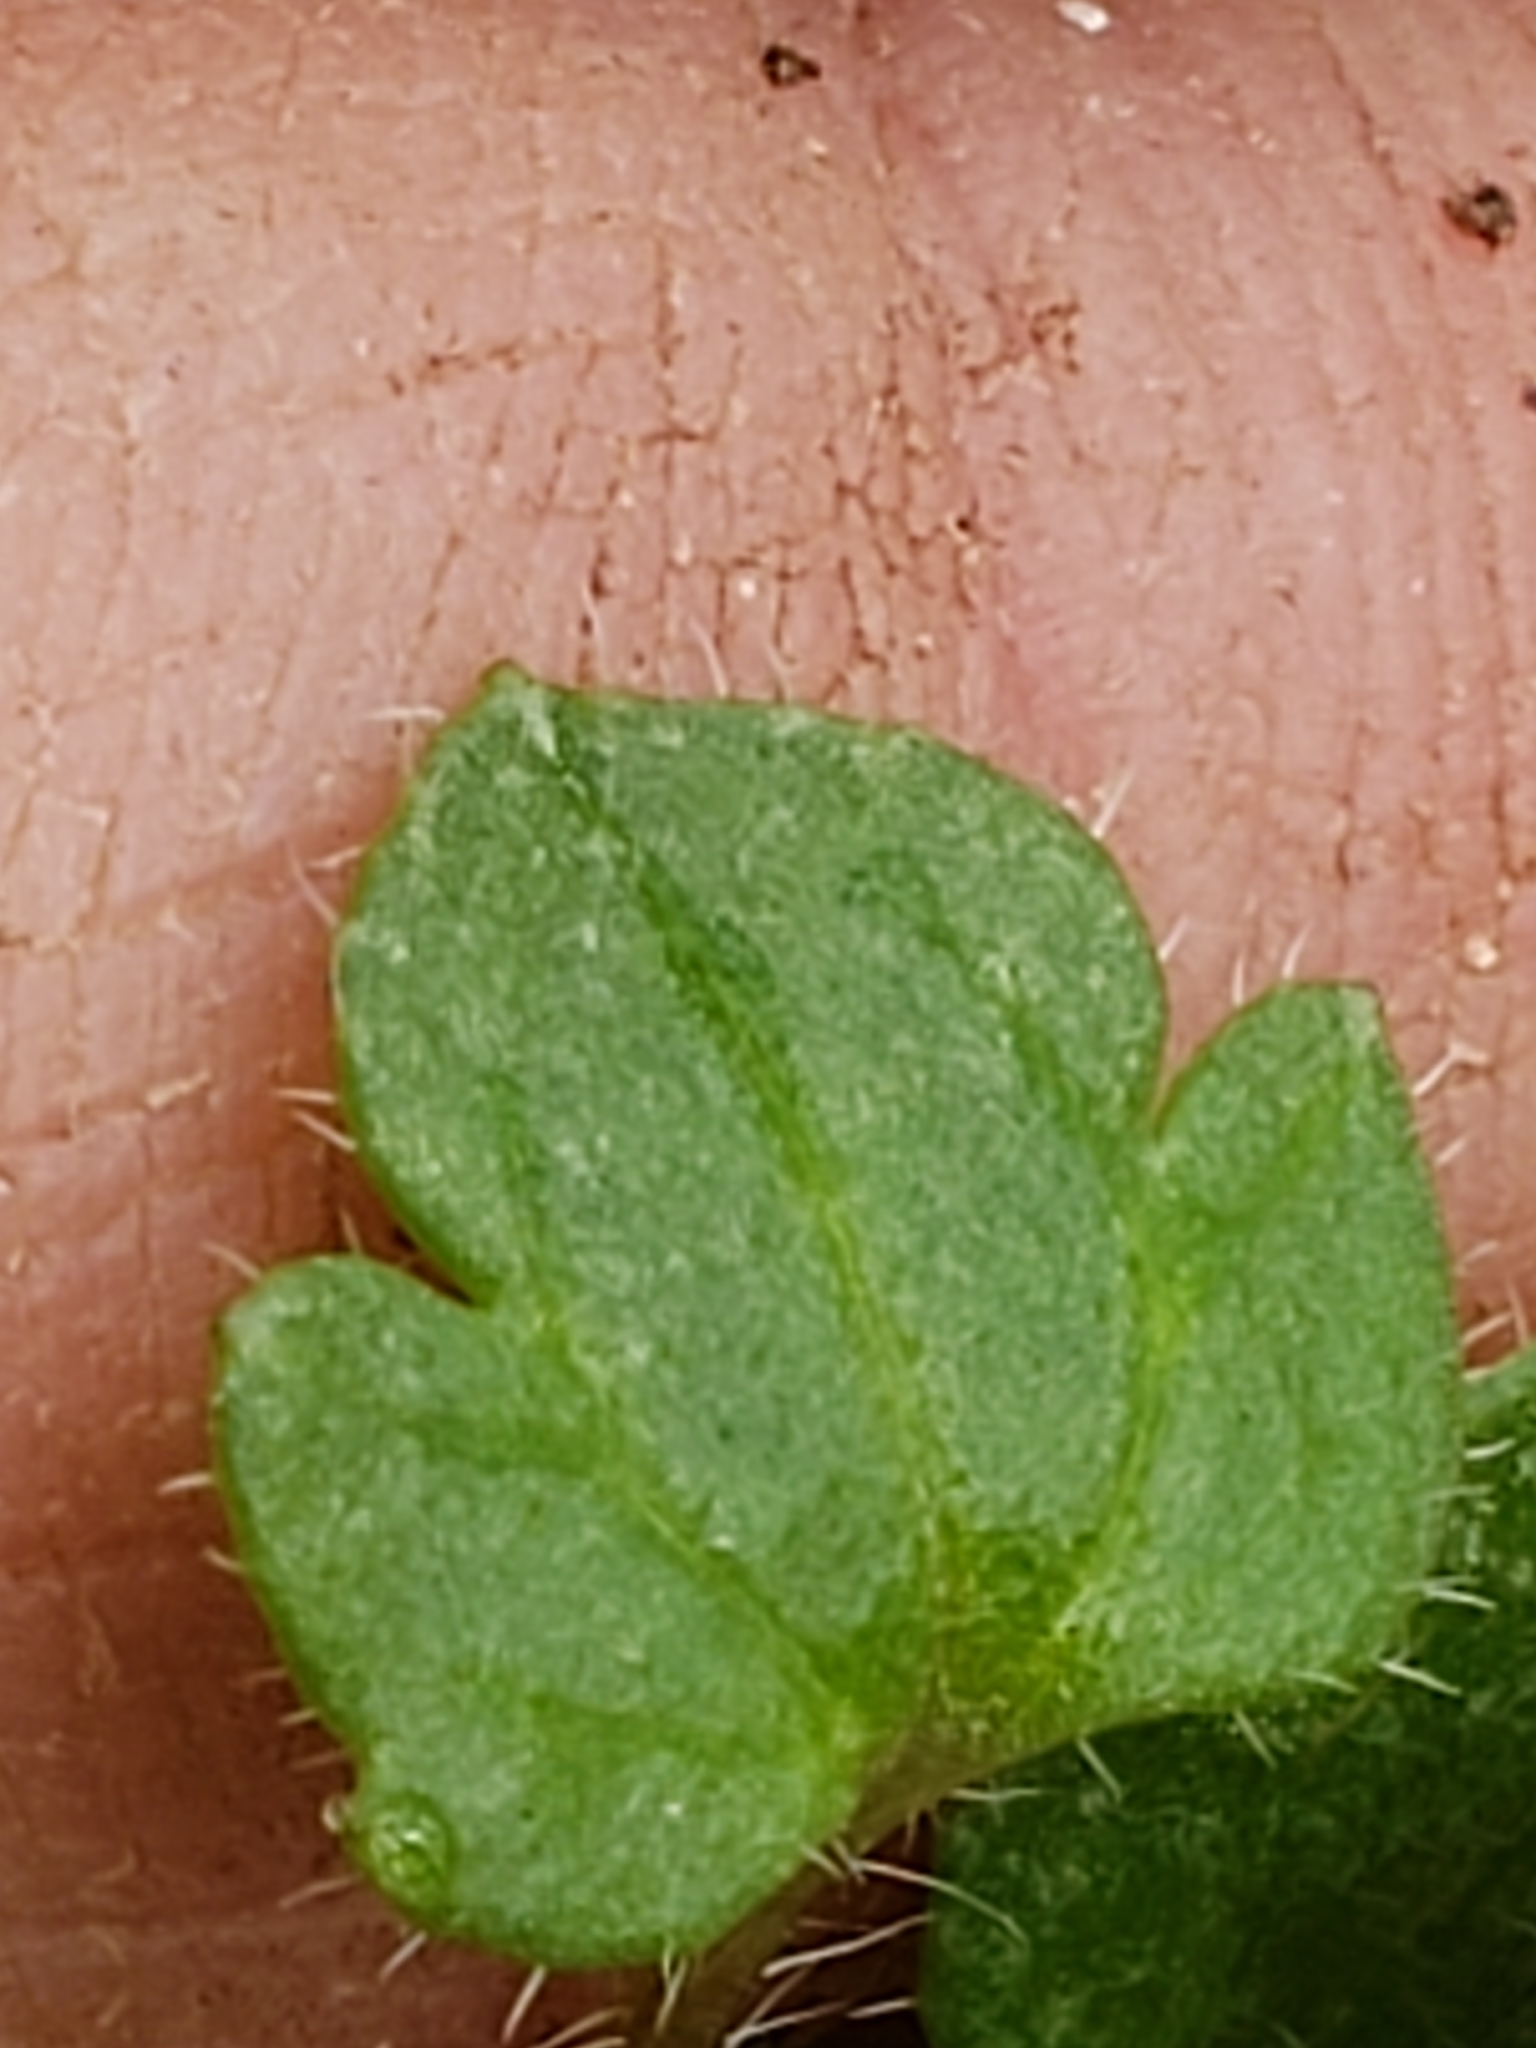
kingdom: Plantae
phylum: Tracheophyta
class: Magnoliopsida
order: Lamiales
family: Plantaginaceae
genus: Veronica
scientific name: Veronica hederifolia
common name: Ivy-leaved speedwell
